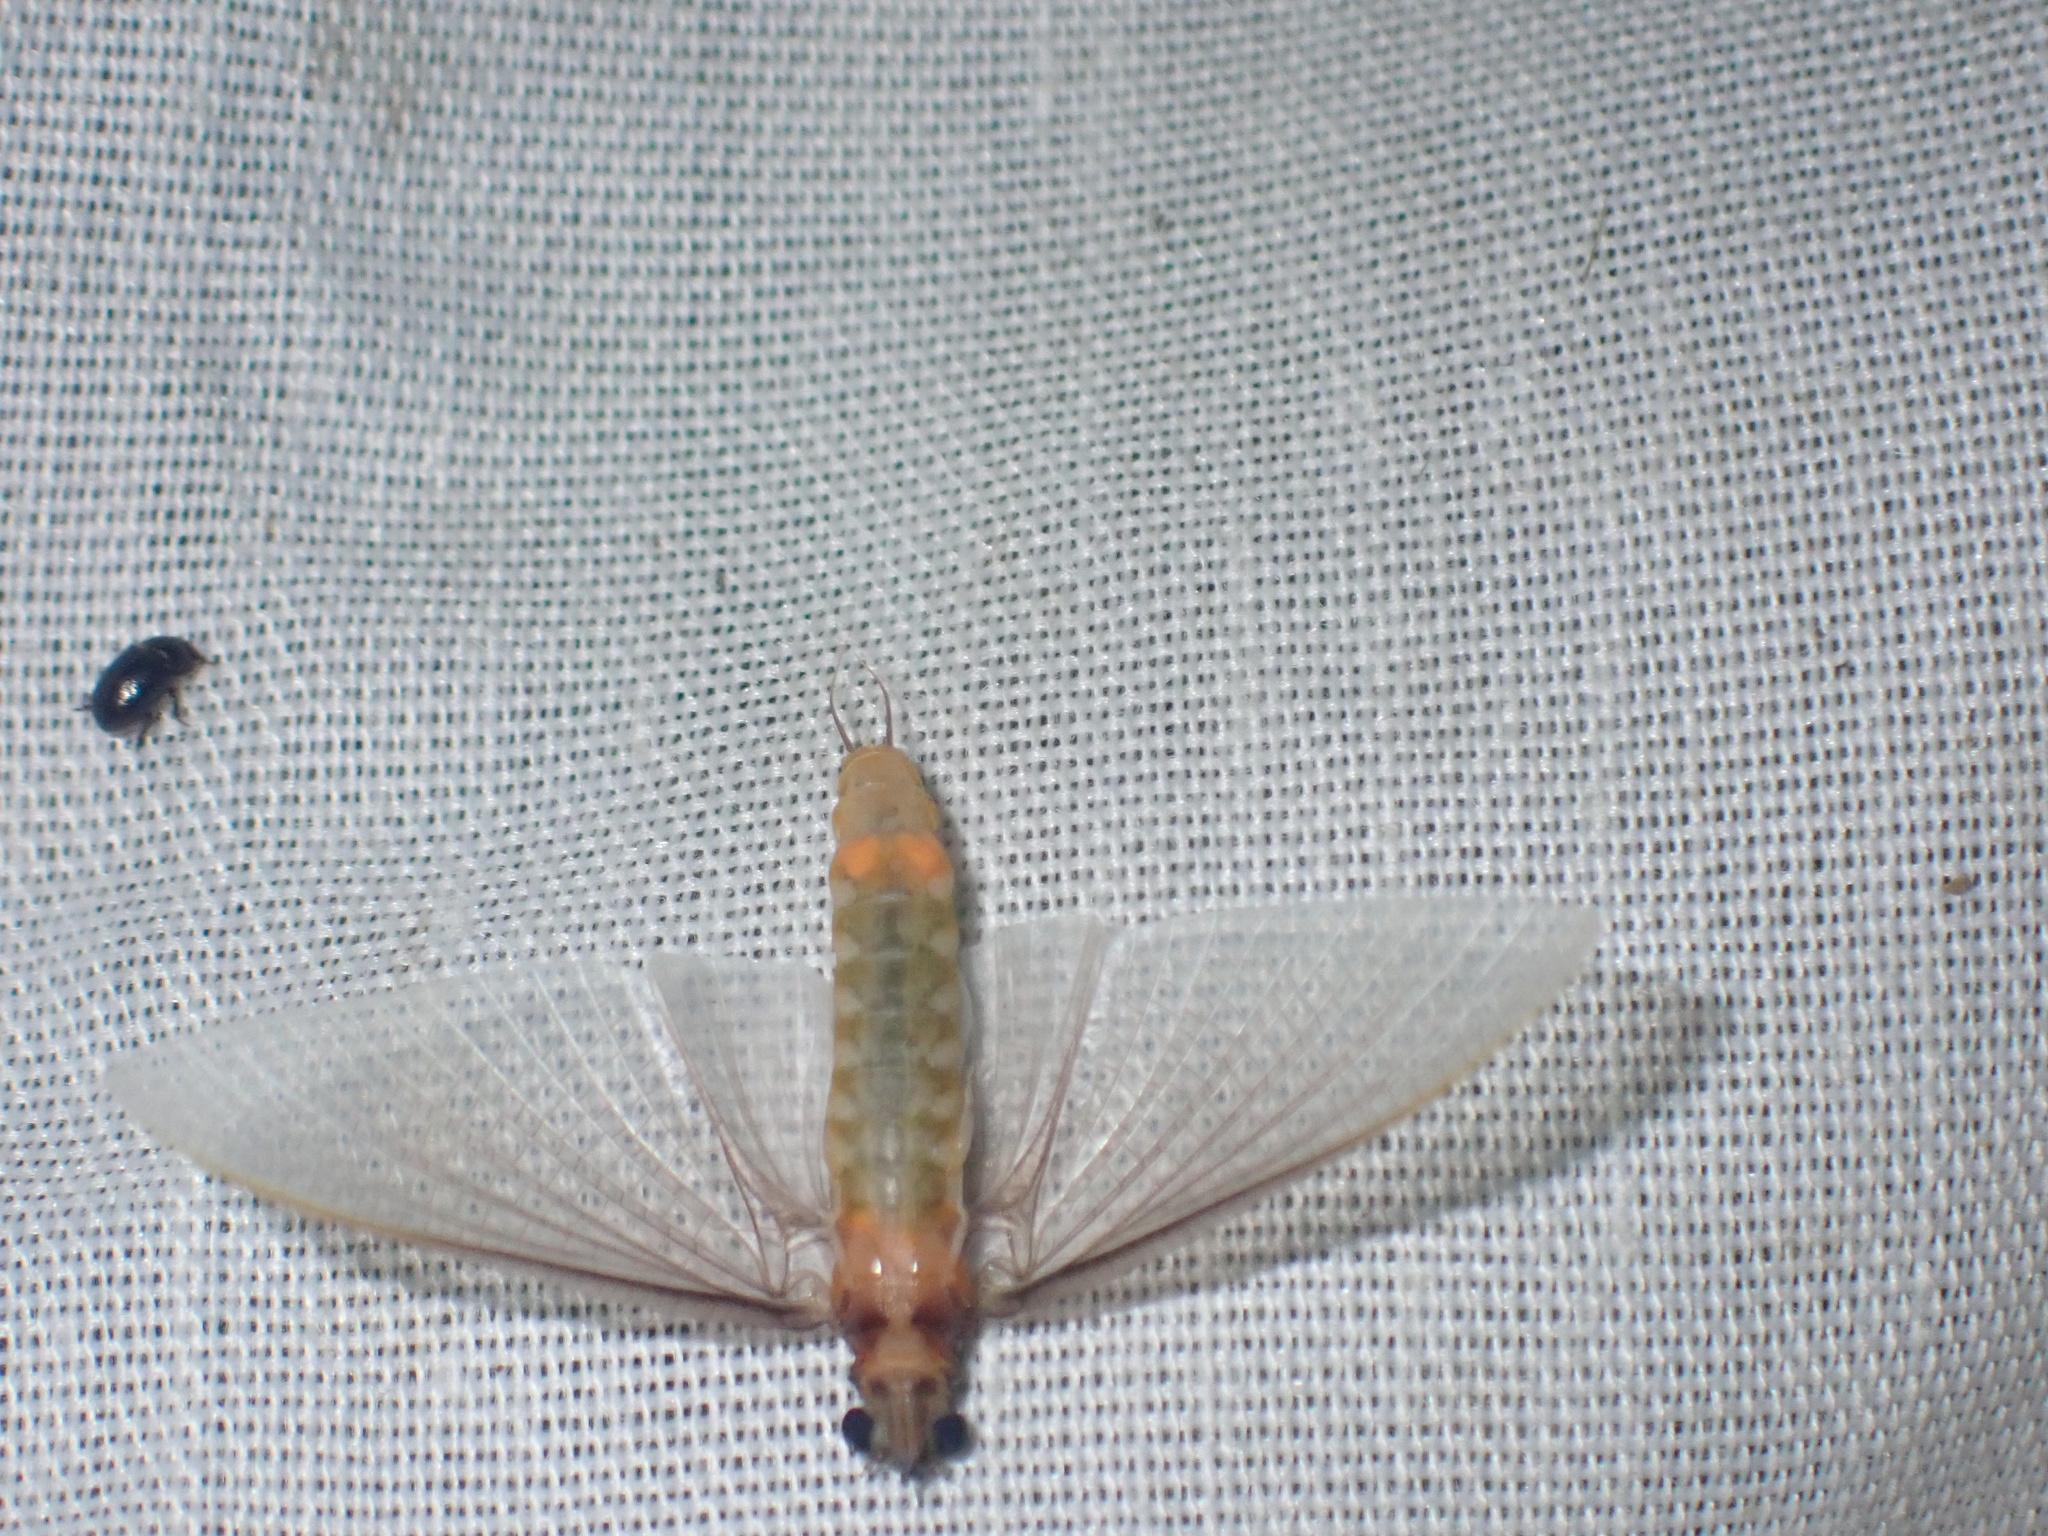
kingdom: Animalia
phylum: Arthropoda
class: Insecta
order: Ephemeroptera
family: Polymitarcyidae
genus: Povilla
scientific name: Povilla adusta
